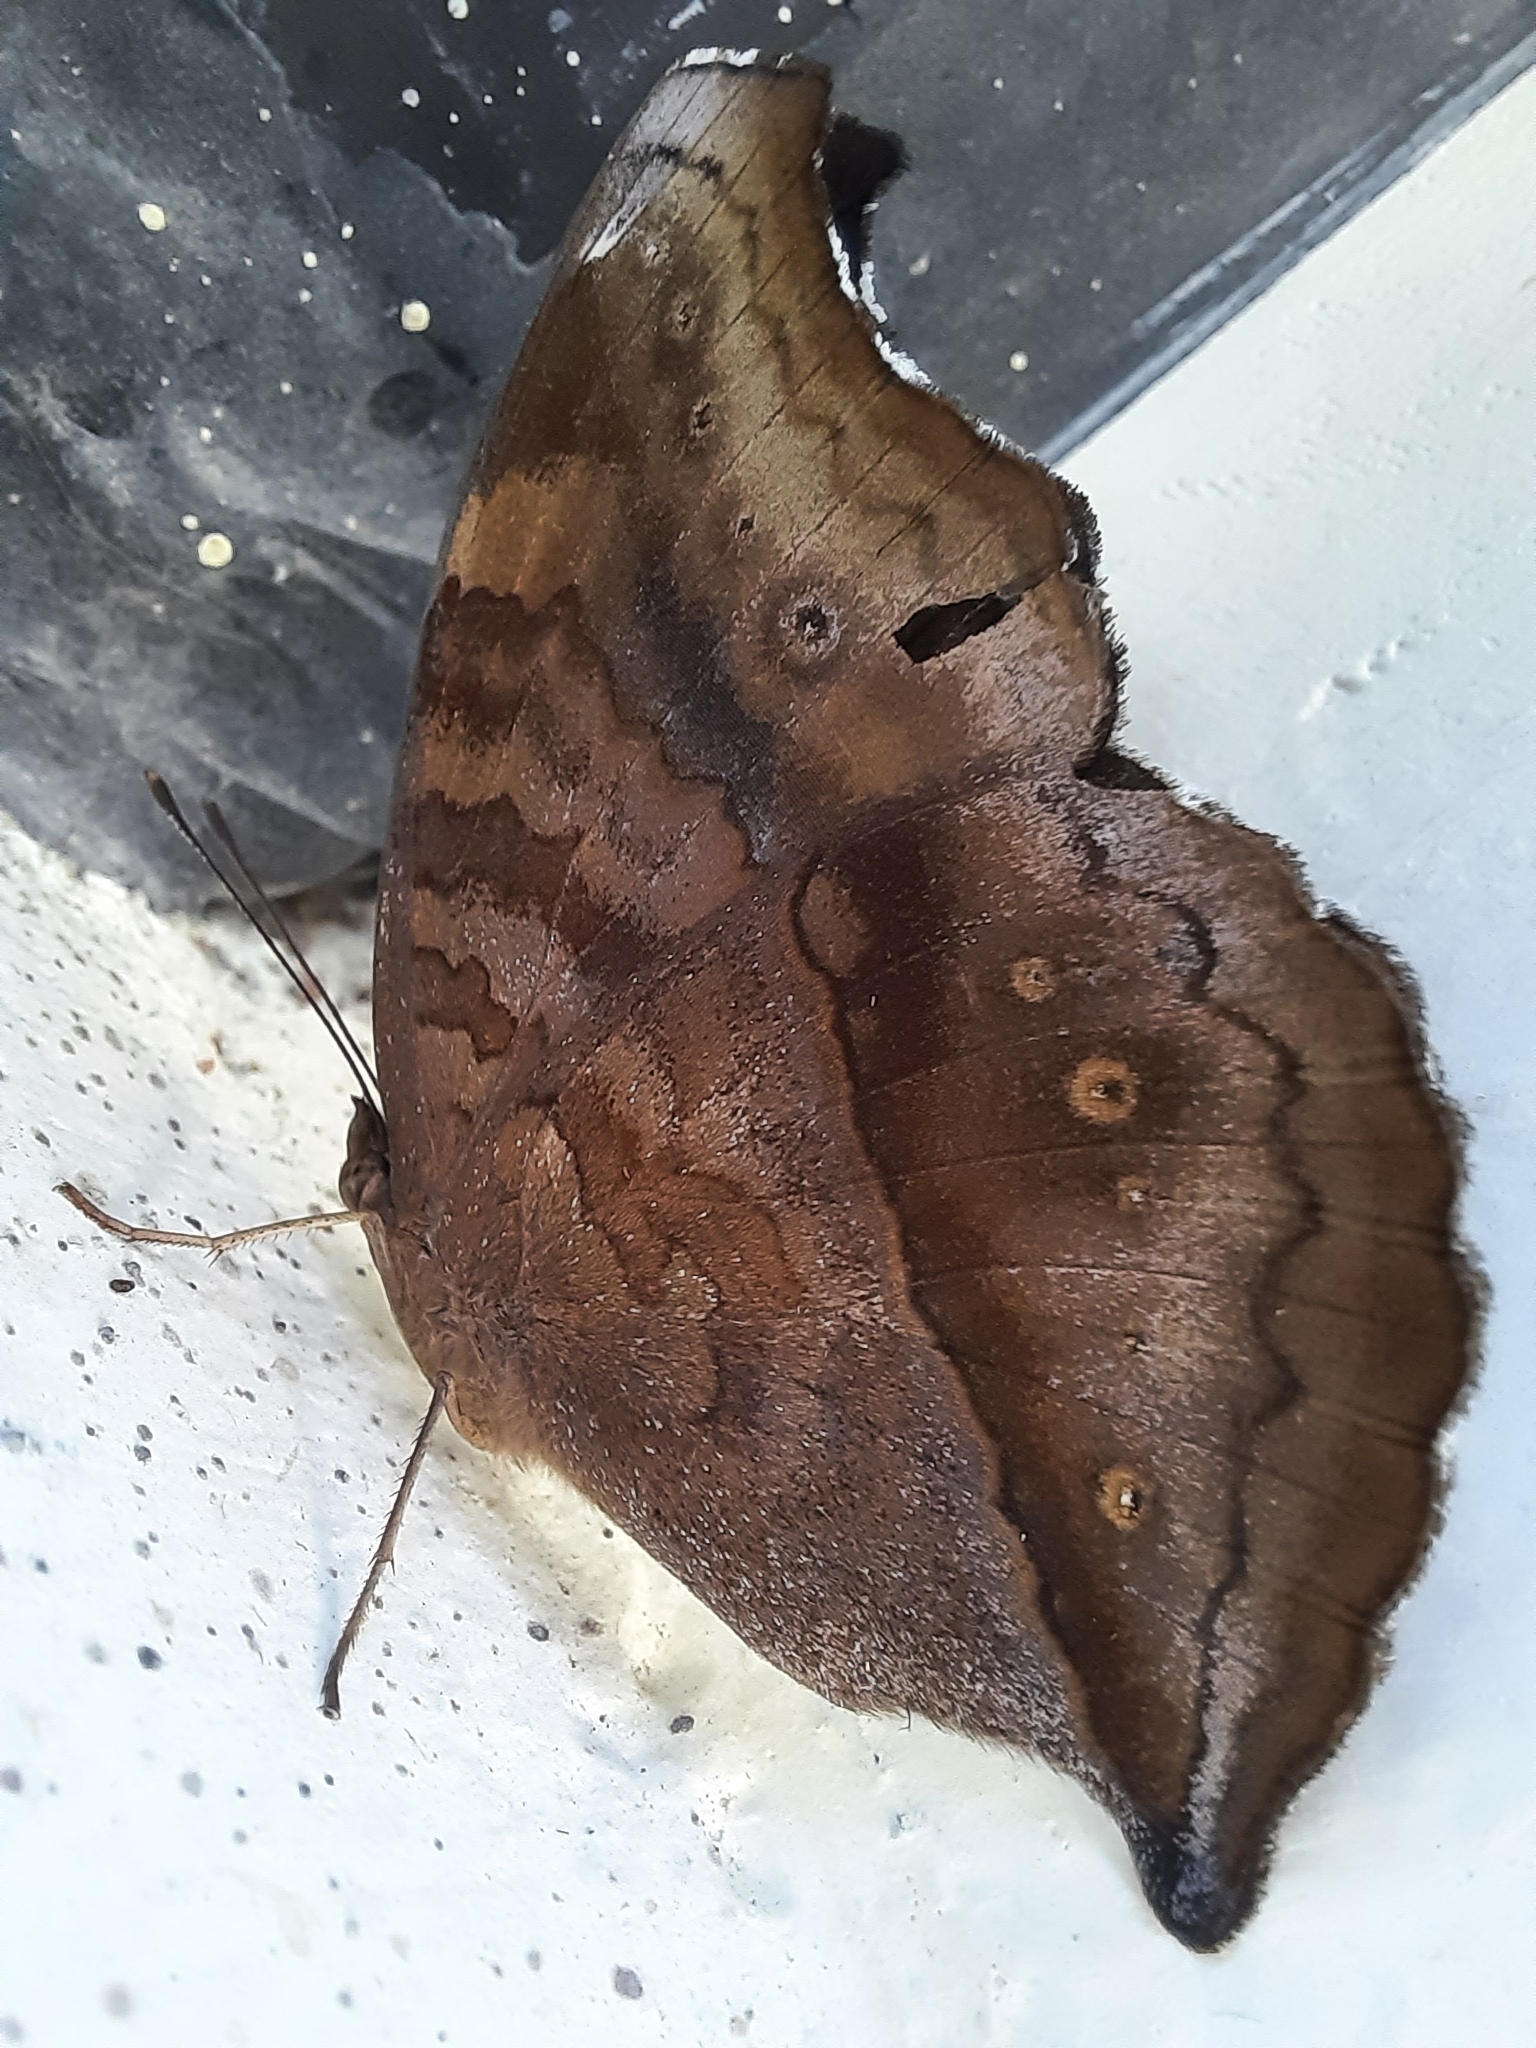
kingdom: Animalia
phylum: Arthropoda
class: Insecta
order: Lepidoptera
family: Nymphalidae
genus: Junonia
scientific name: Junonia iphita
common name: Chocolate pansy
